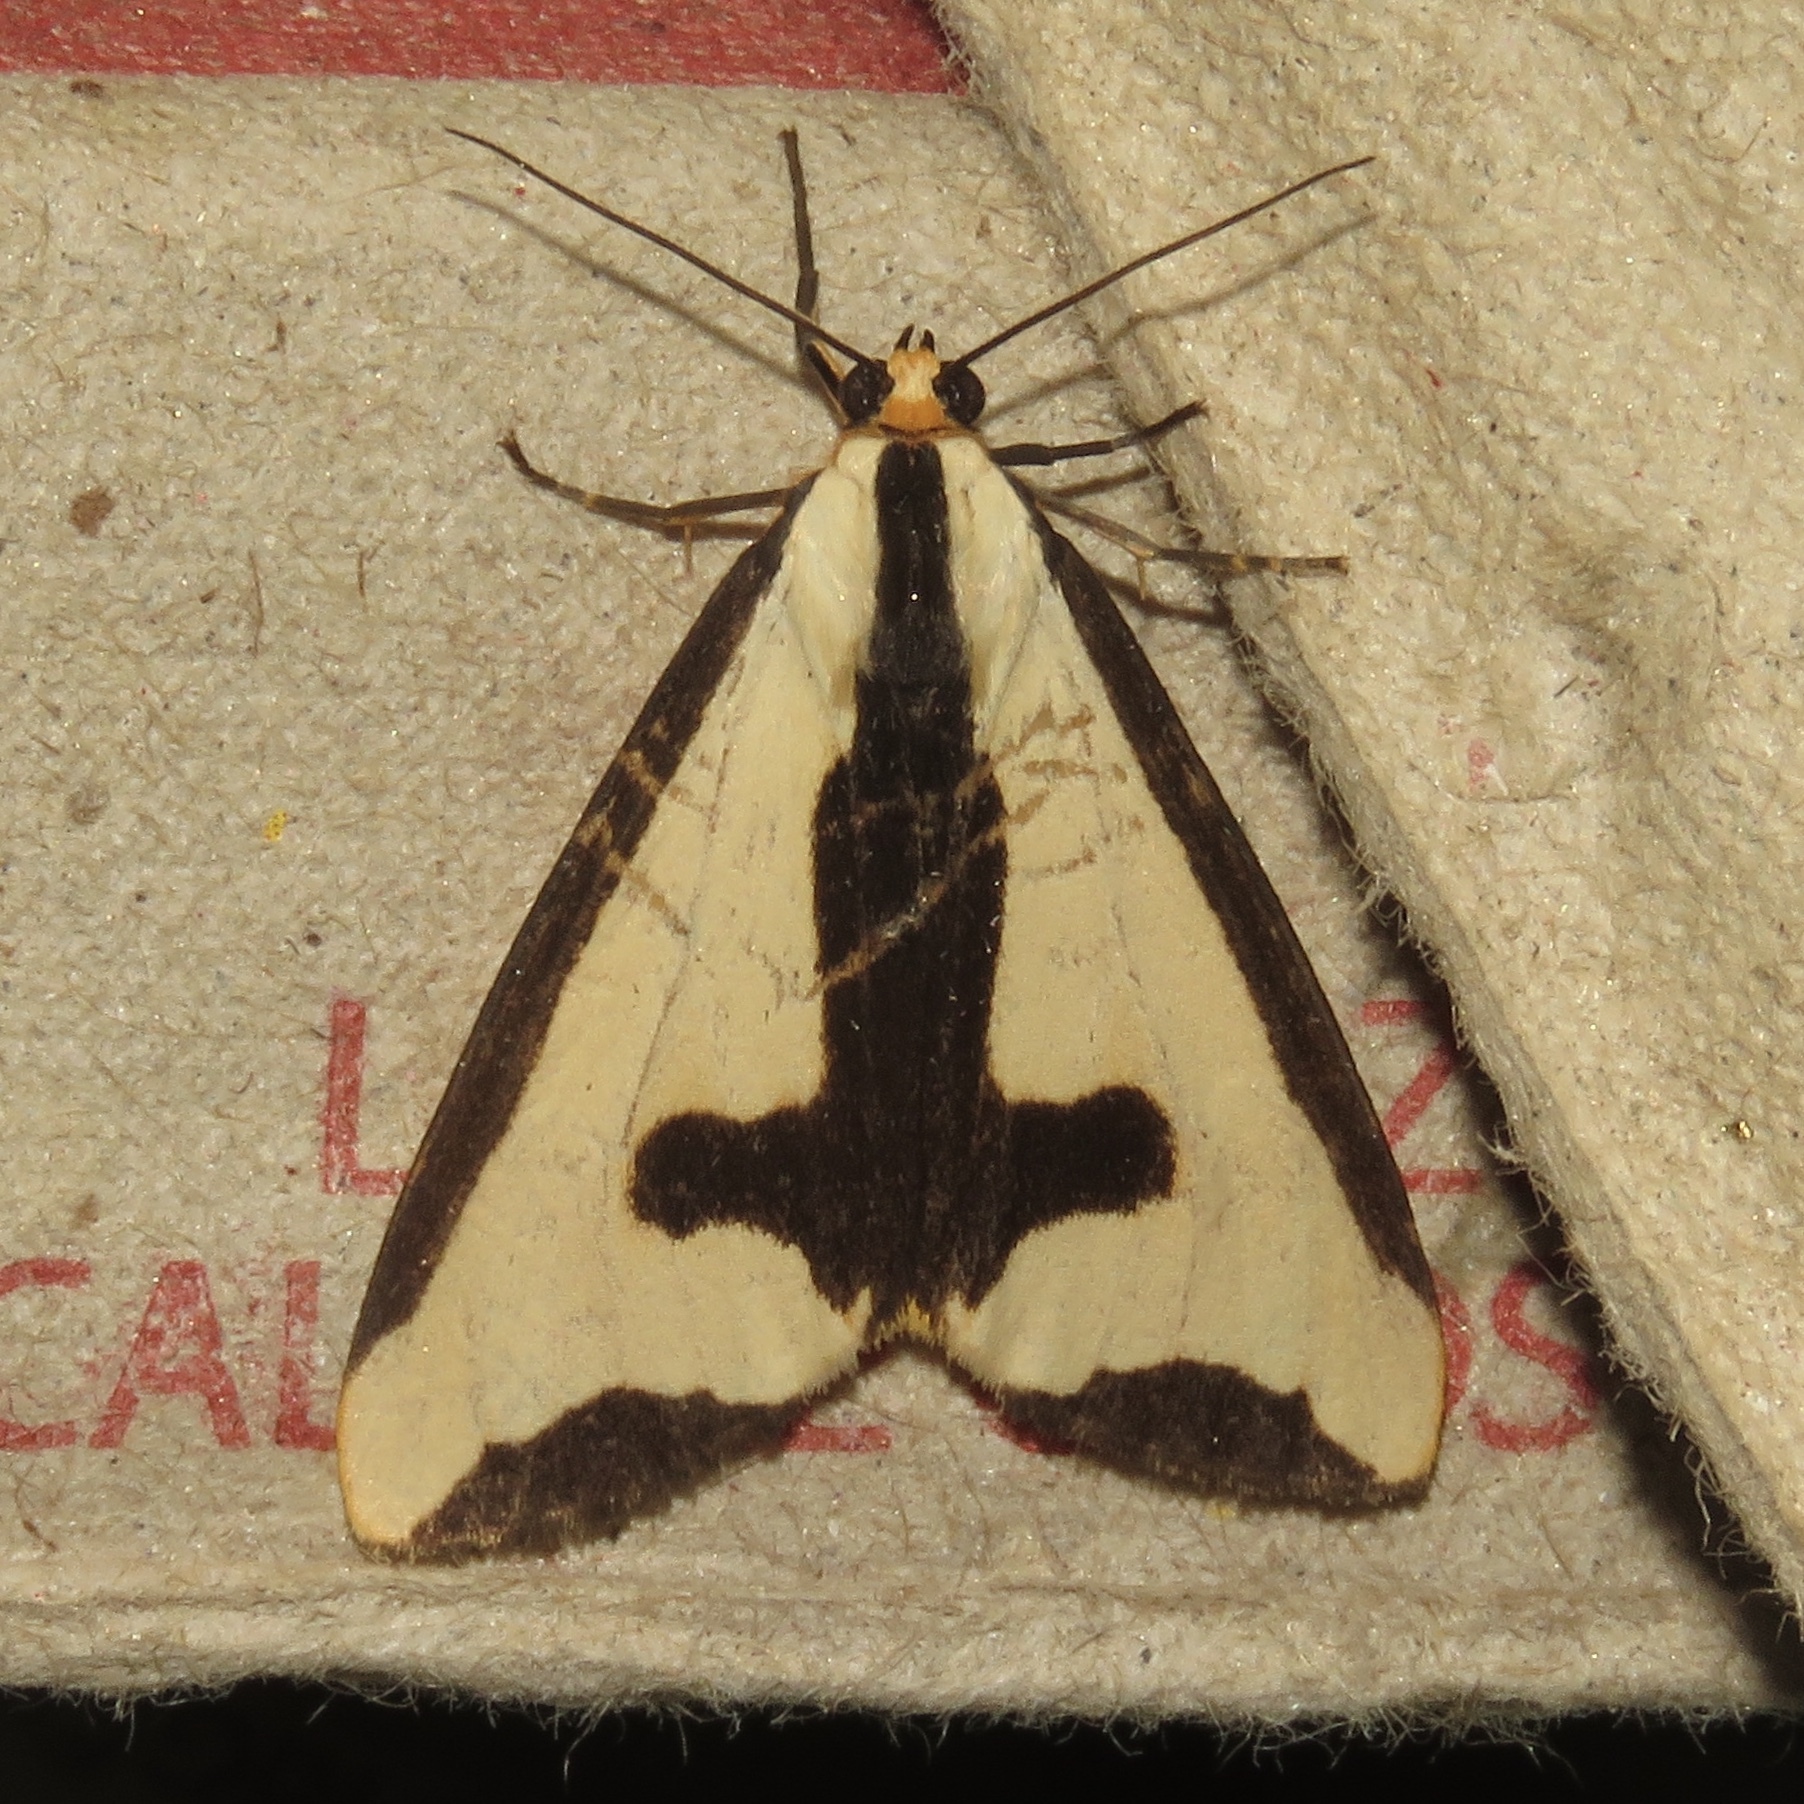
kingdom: Animalia
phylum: Arthropoda
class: Insecta
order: Lepidoptera
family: Erebidae
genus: Haploa
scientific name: Haploa clymene
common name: Clymene moth
